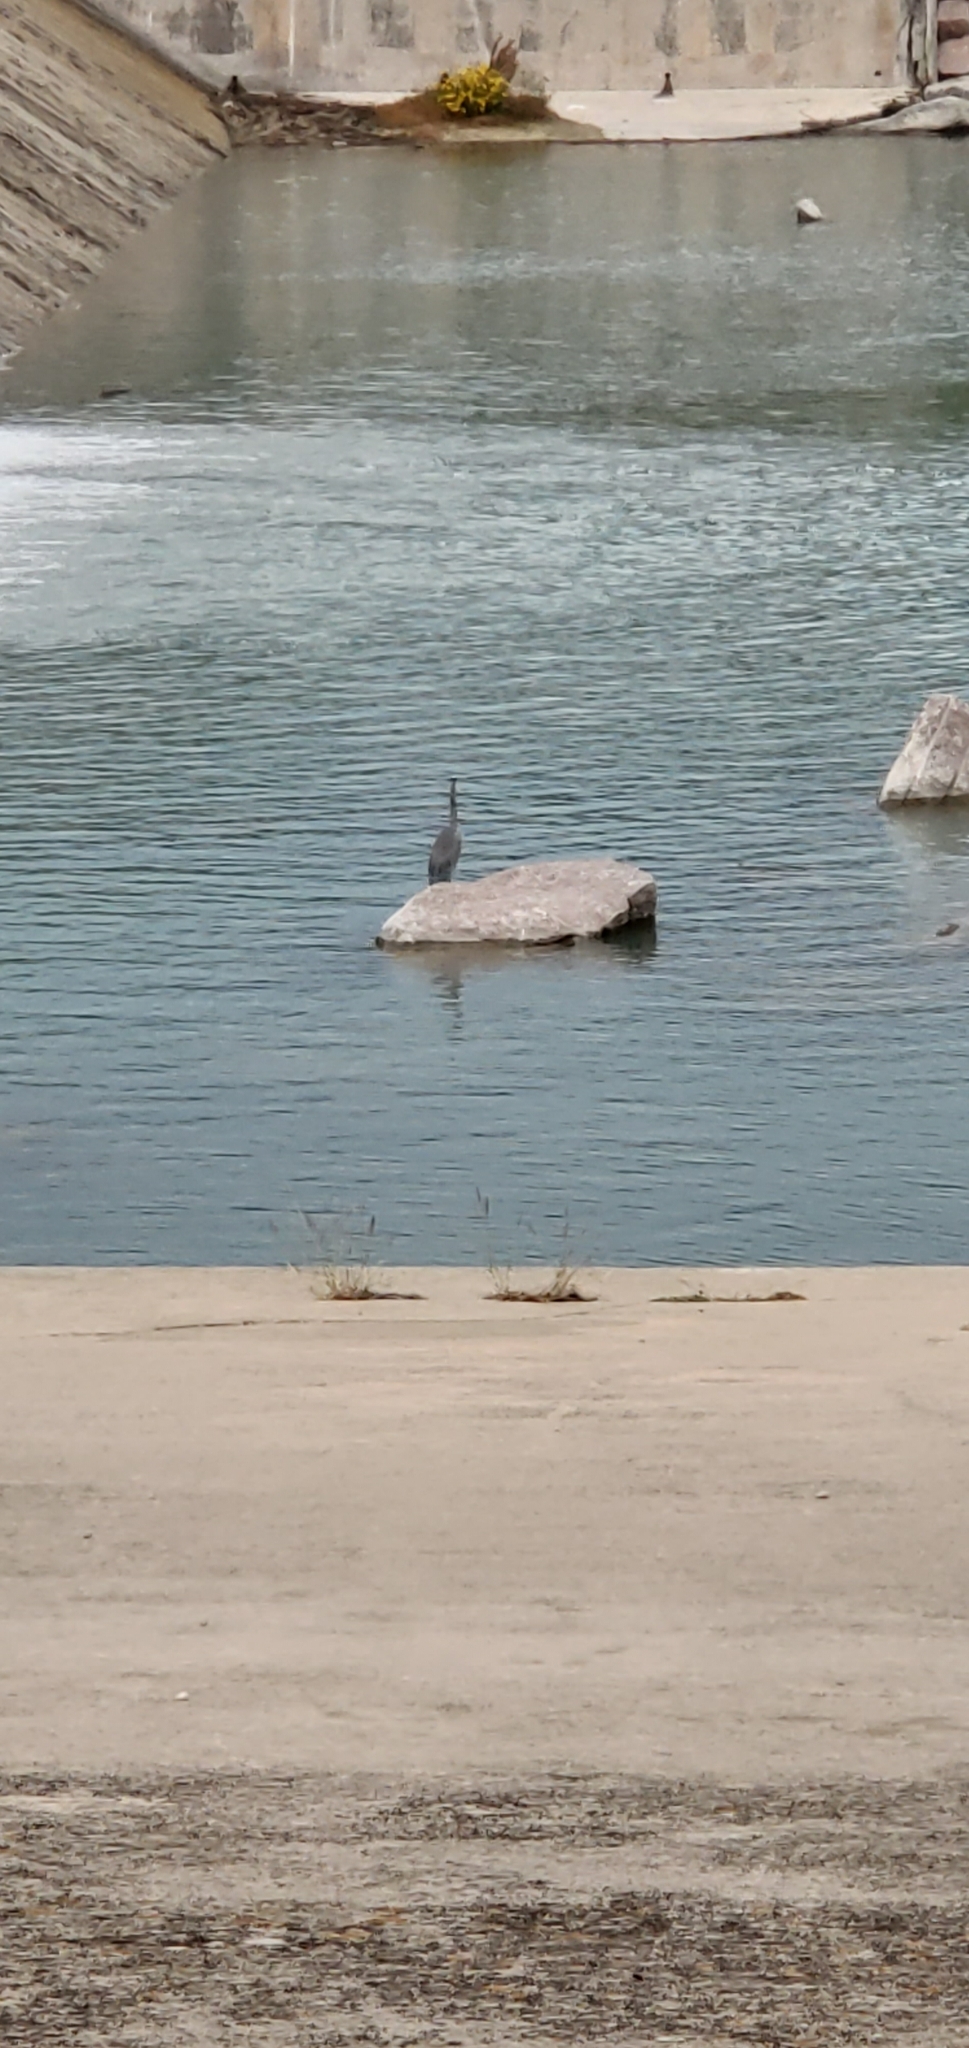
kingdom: Animalia
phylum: Chordata
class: Aves
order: Pelecaniformes
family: Ardeidae
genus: Ardea
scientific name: Ardea herodias
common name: Great blue heron
